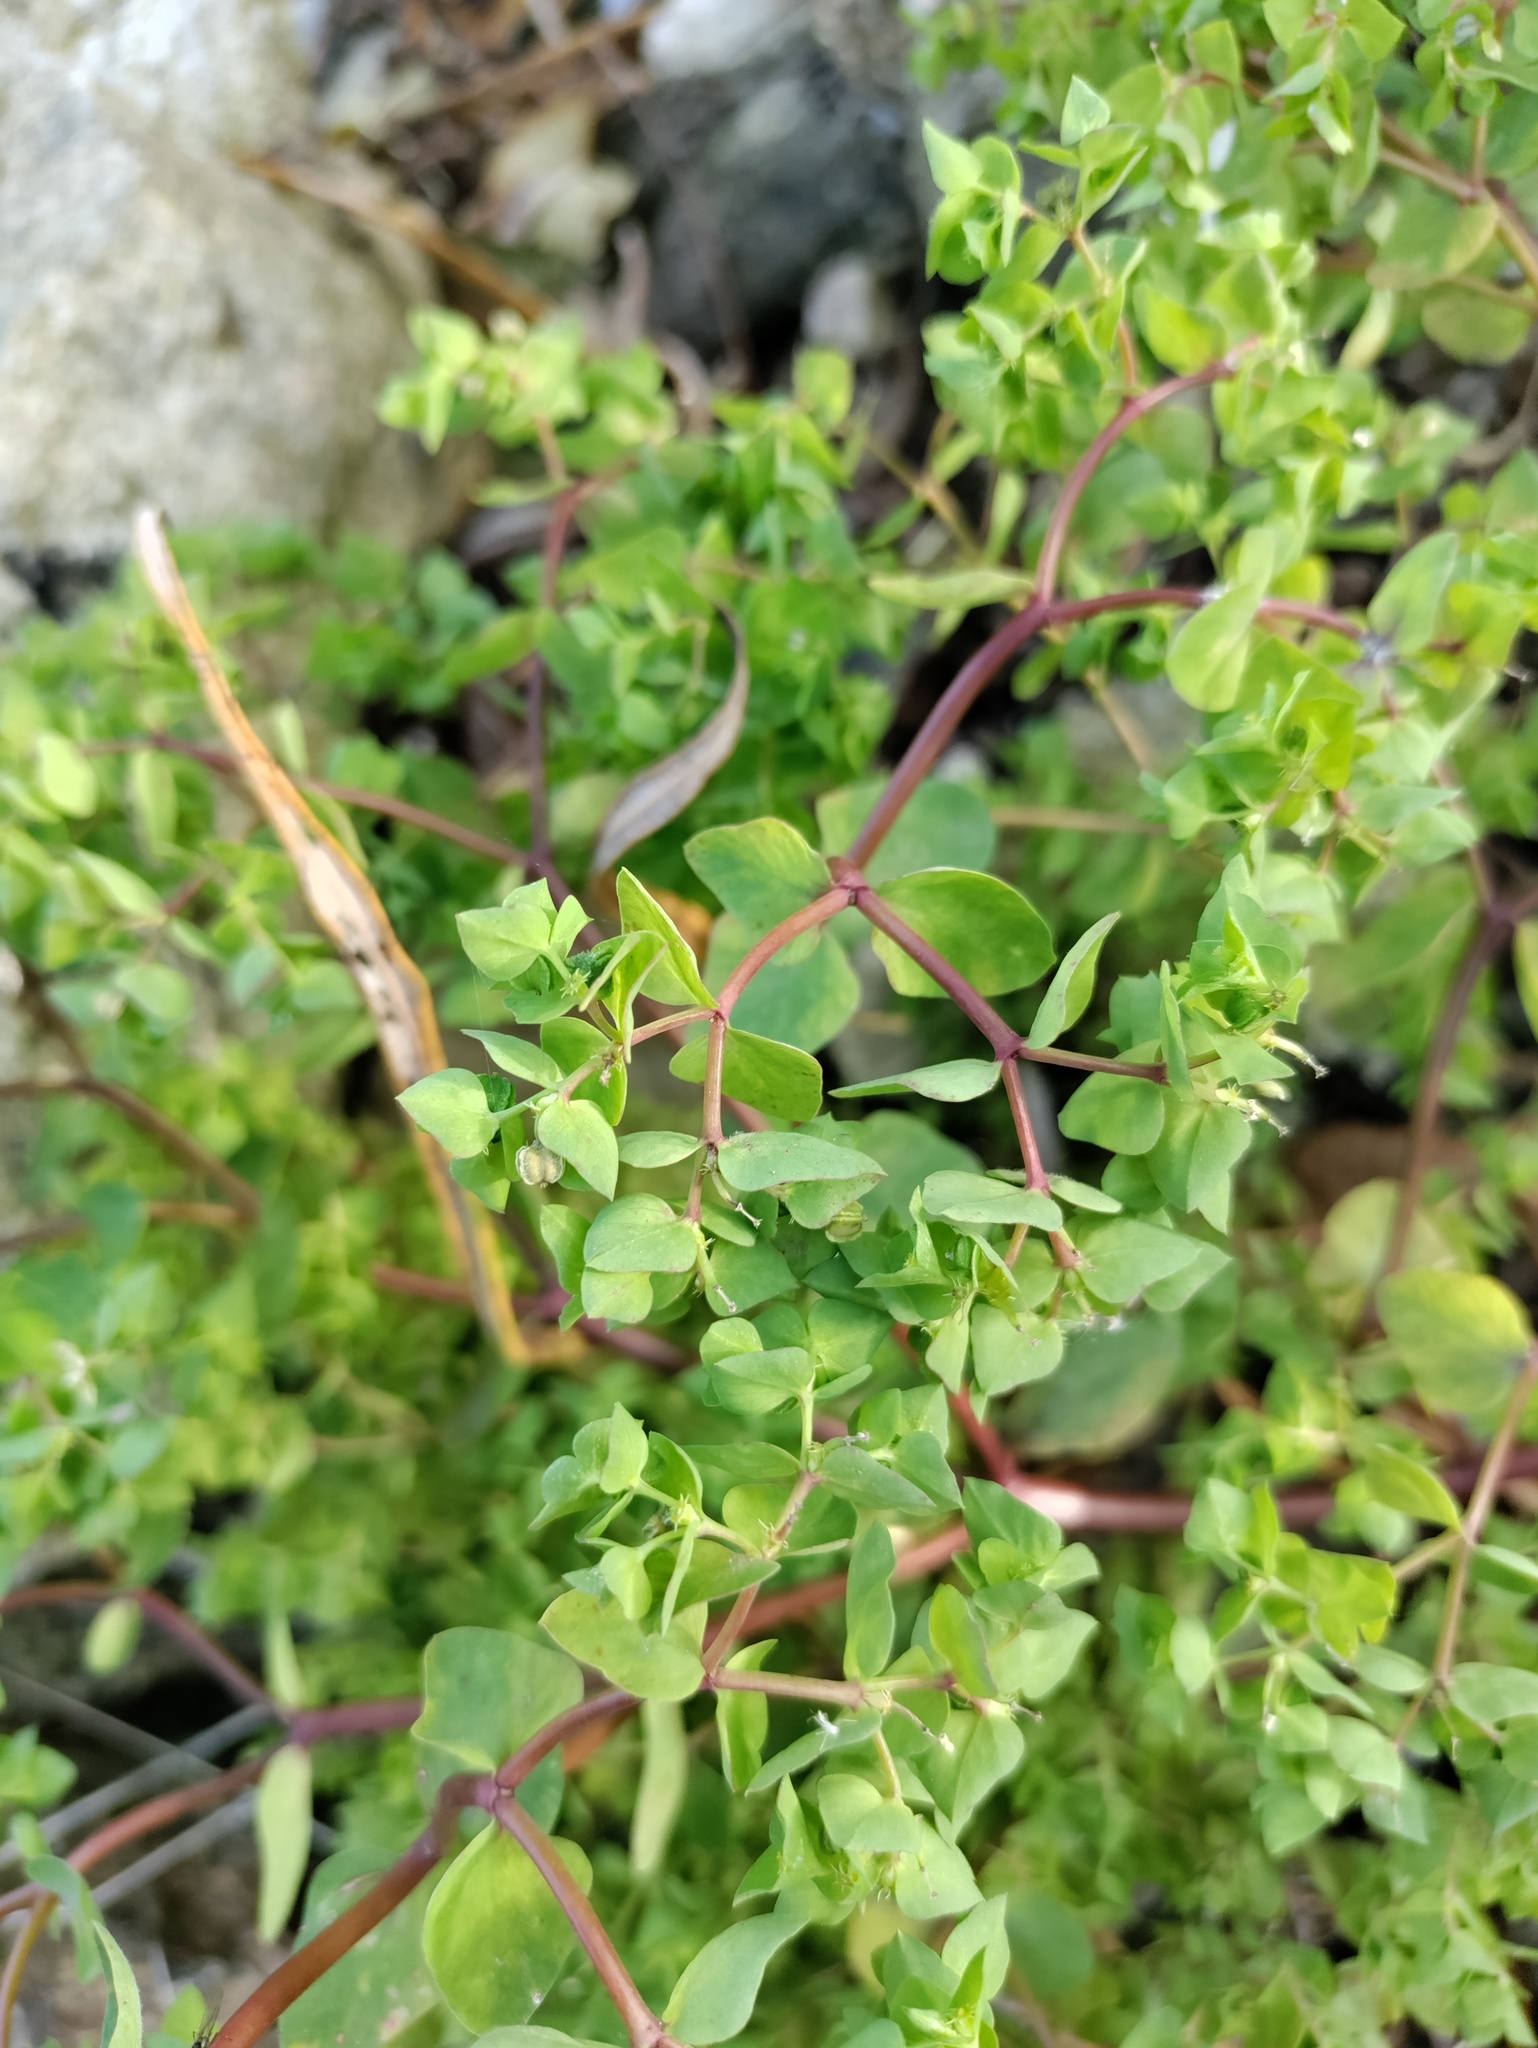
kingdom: Plantae
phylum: Tracheophyta
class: Magnoliopsida
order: Malpighiales
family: Euphorbiaceae
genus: Euphorbia
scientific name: Euphorbia peplus
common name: Petty spurge
